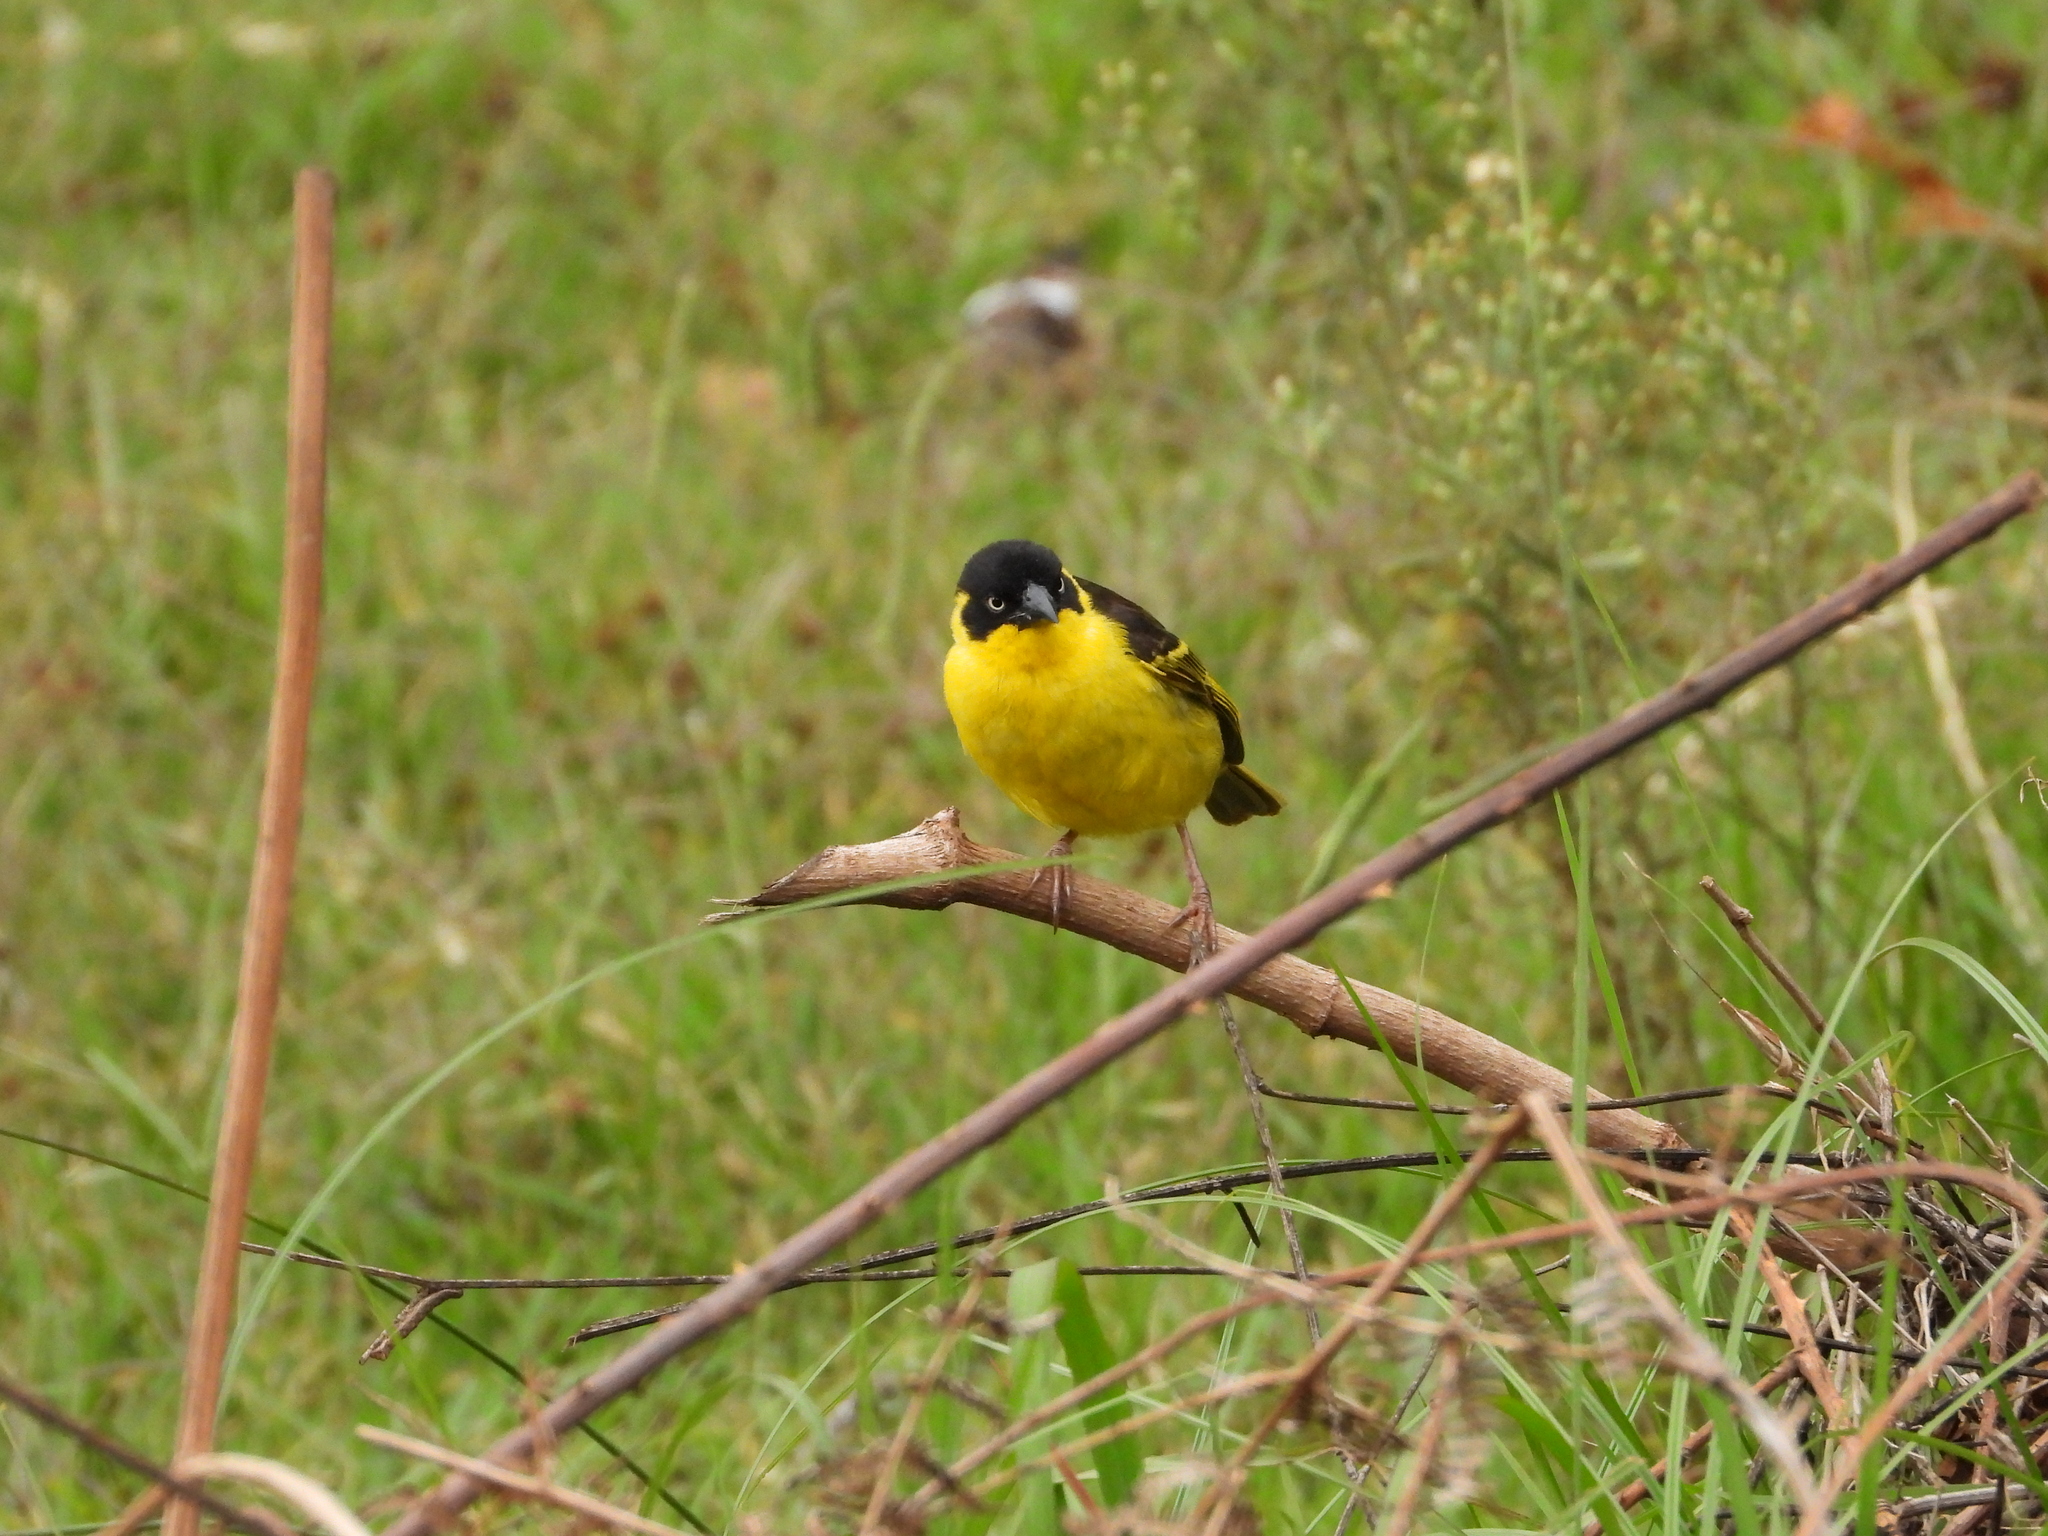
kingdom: Animalia
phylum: Chordata
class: Aves
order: Passeriformes
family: Ploceidae
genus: Ploceus
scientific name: Ploceus baglafecht
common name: Baglafecht weaver
